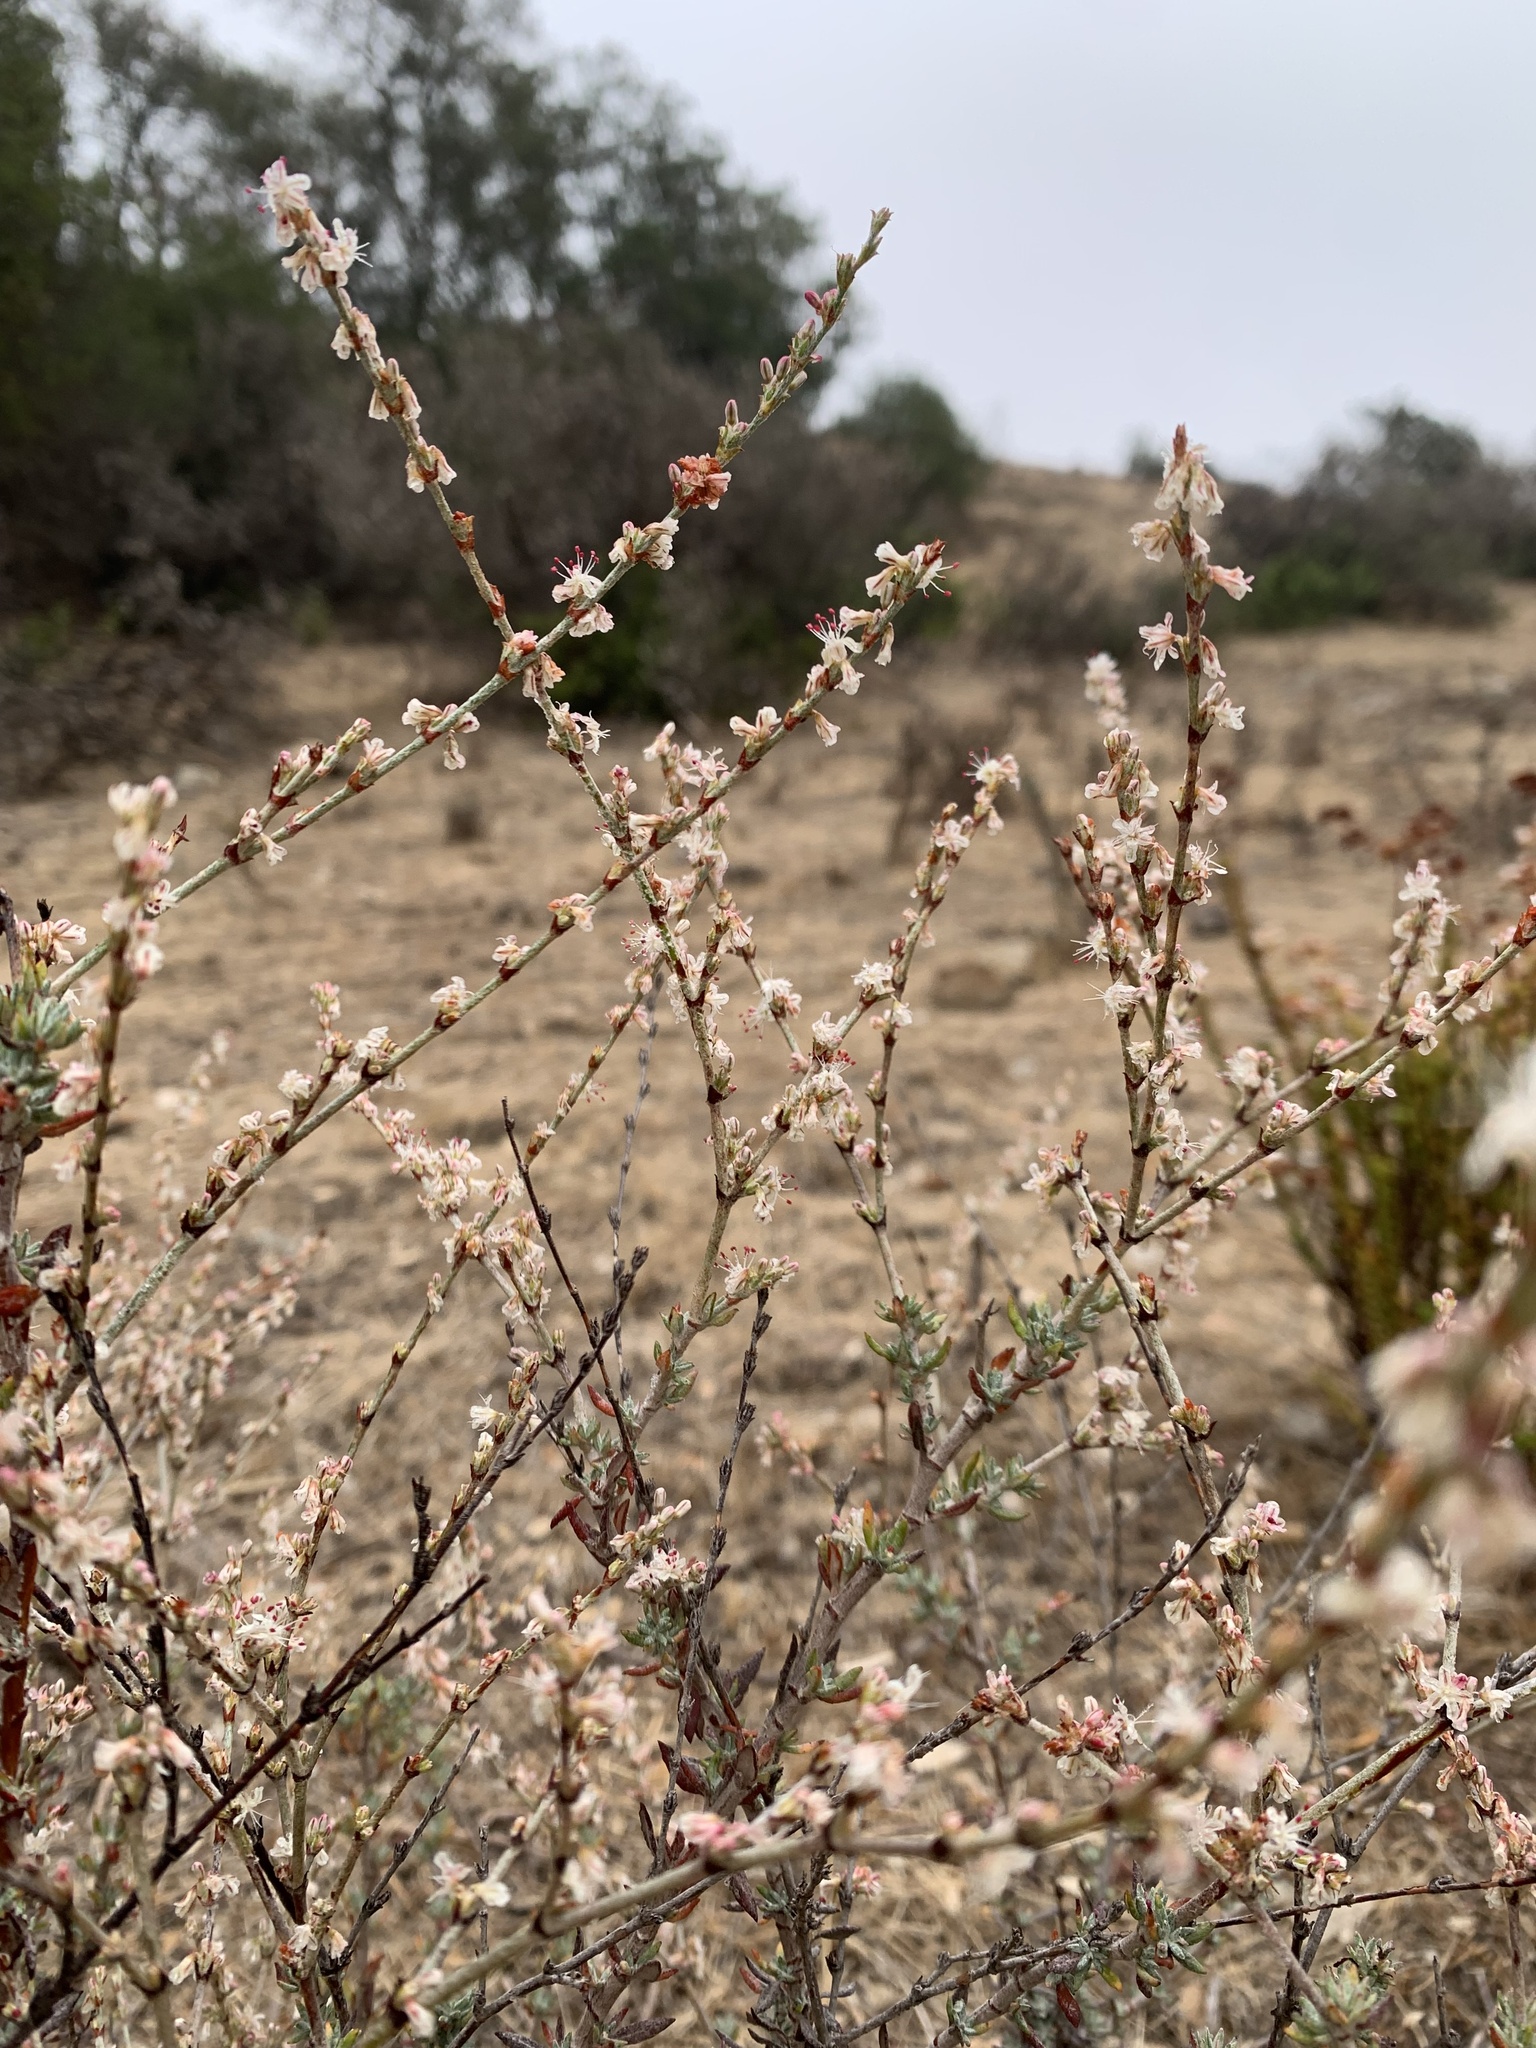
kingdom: Plantae
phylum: Tracheophyta
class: Magnoliopsida
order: Caryophyllales
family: Polygonaceae
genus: Eriogonum
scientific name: Eriogonum wrightii
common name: Bastard-sage
